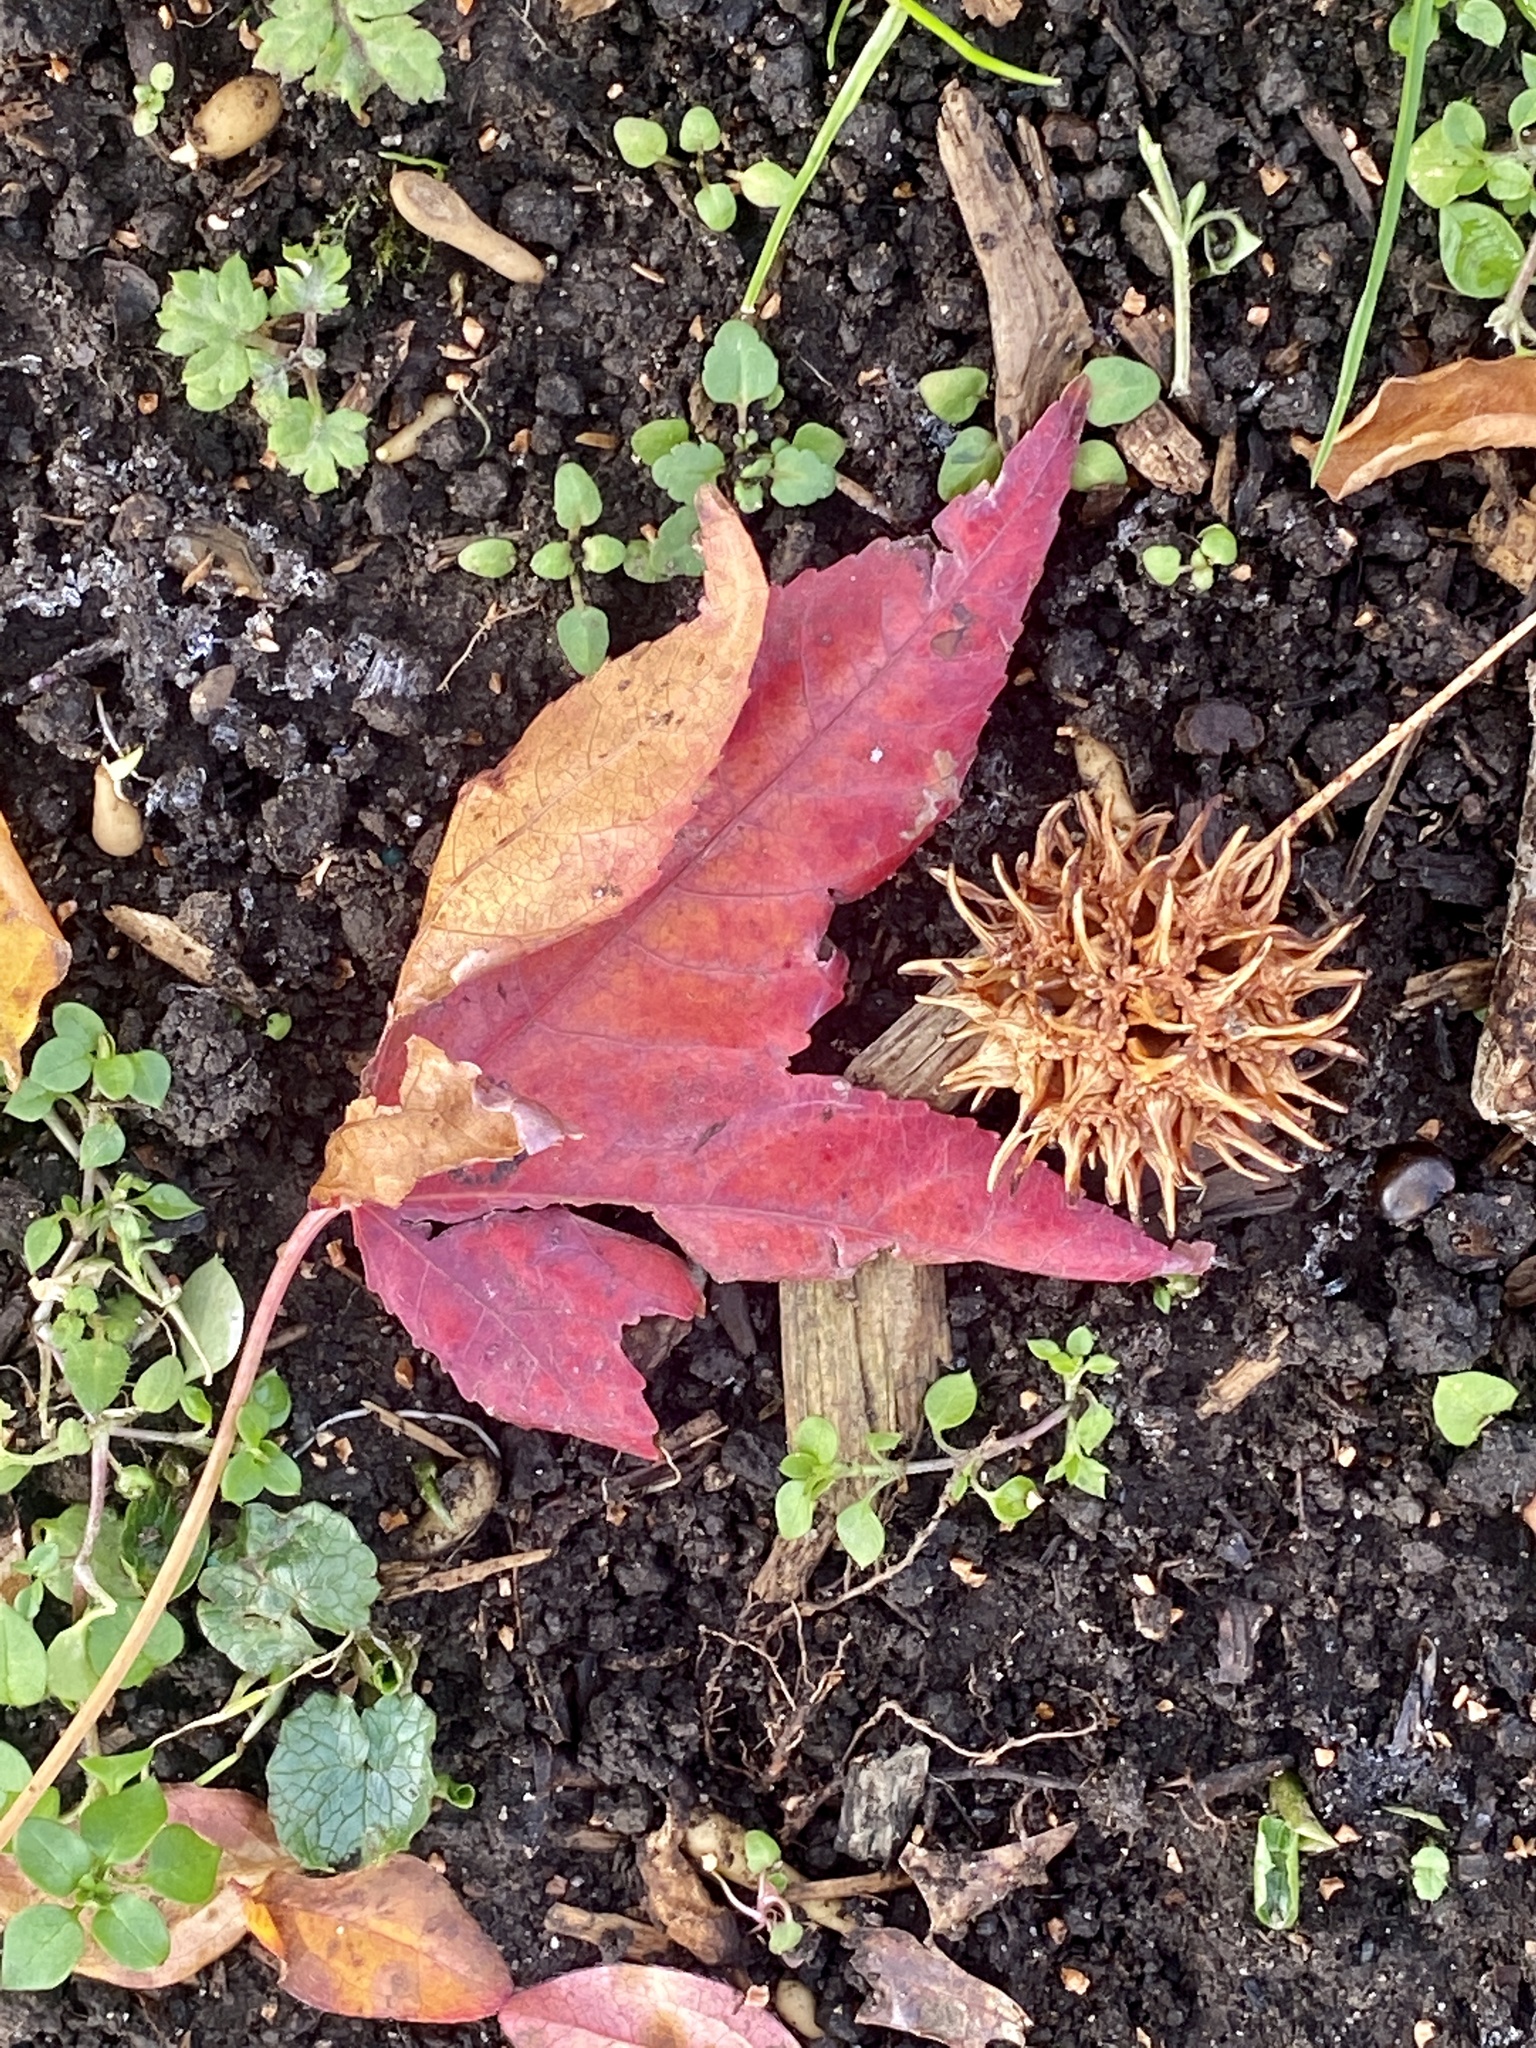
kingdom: Plantae
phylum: Tracheophyta
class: Magnoliopsida
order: Saxifragales
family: Altingiaceae
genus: Liquidambar
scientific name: Liquidambar styraciflua
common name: Sweet gum
